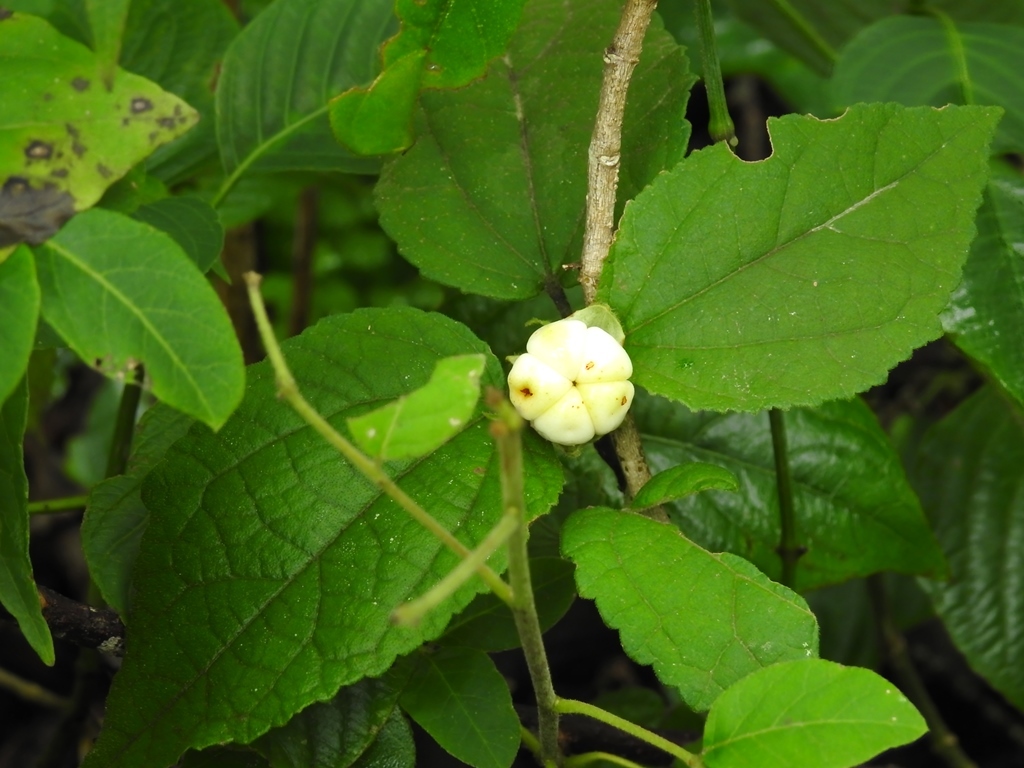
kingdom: Plantae
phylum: Tracheophyta
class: Magnoliopsida
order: Malvales
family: Malvaceae
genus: Malvaviscus
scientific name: Malvaviscus arboreus
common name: Wax mallow
